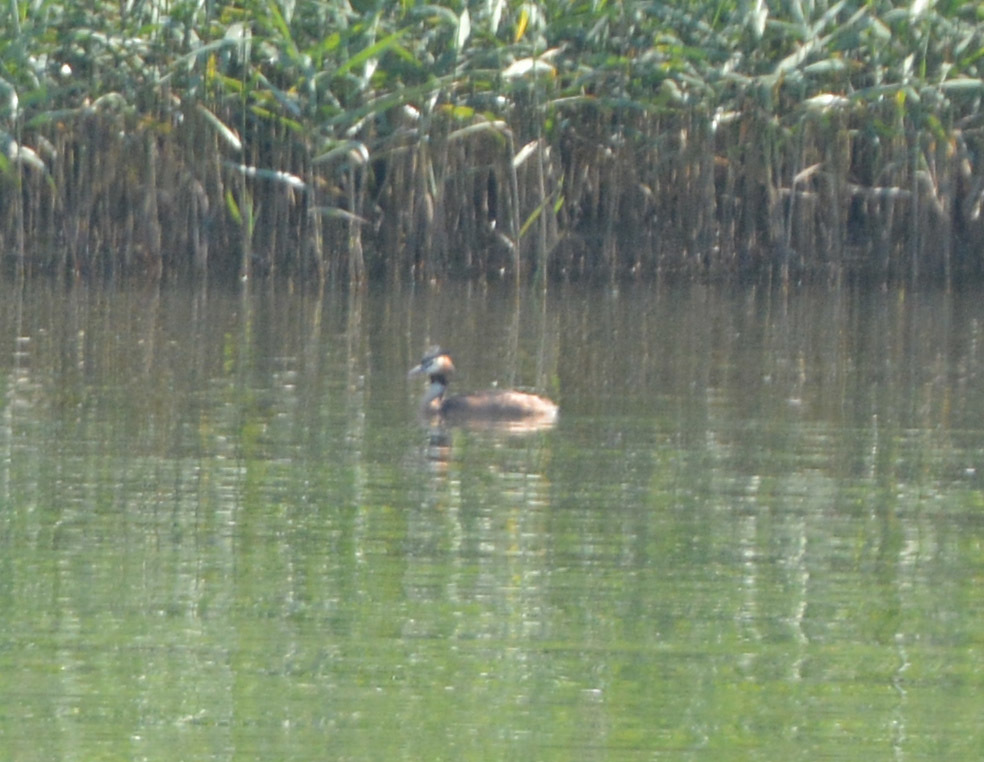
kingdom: Animalia
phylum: Chordata
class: Aves
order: Podicipediformes
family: Podicipedidae
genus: Podiceps
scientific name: Podiceps cristatus
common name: Great crested grebe
